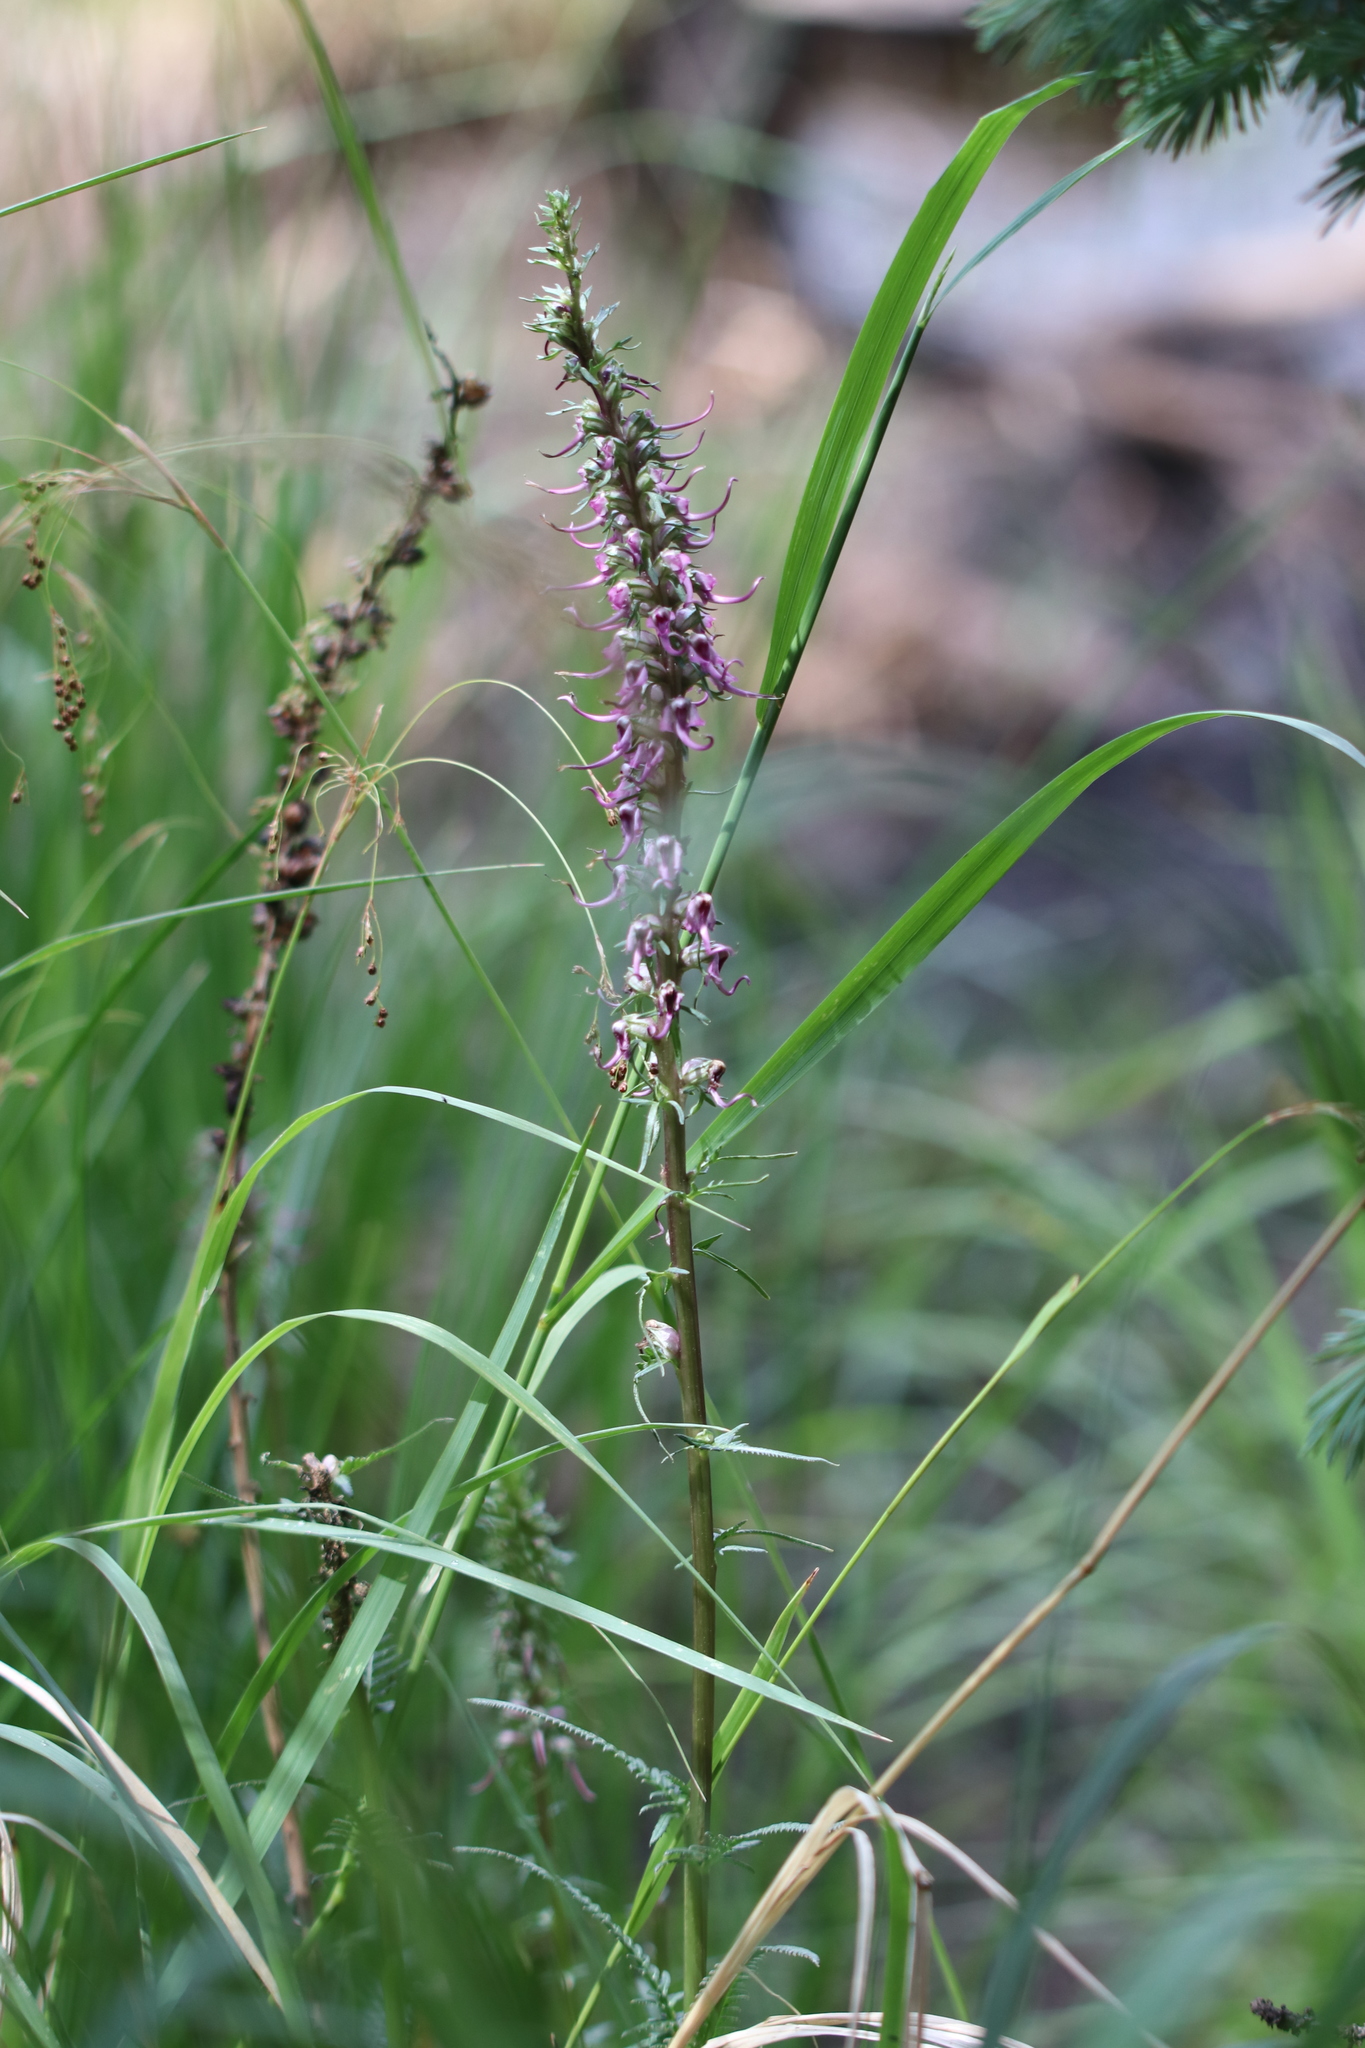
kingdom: Plantae
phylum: Tracheophyta
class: Magnoliopsida
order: Lamiales
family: Orobanchaceae
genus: Pedicularis
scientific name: Pedicularis groenlandica
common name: Elephant's-head
